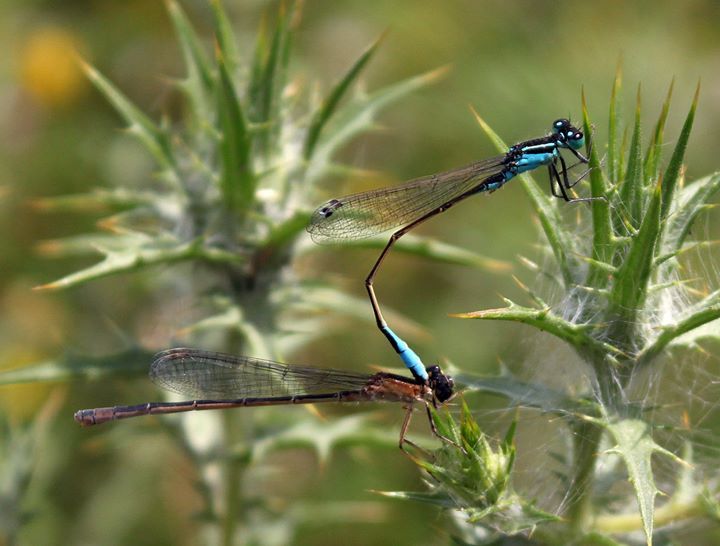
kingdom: Animalia
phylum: Arthropoda
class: Insecta
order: Odonata
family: Coenagrionidae
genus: Ischnura
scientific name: Ischnura elegans
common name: Blue-tailed damselfly
